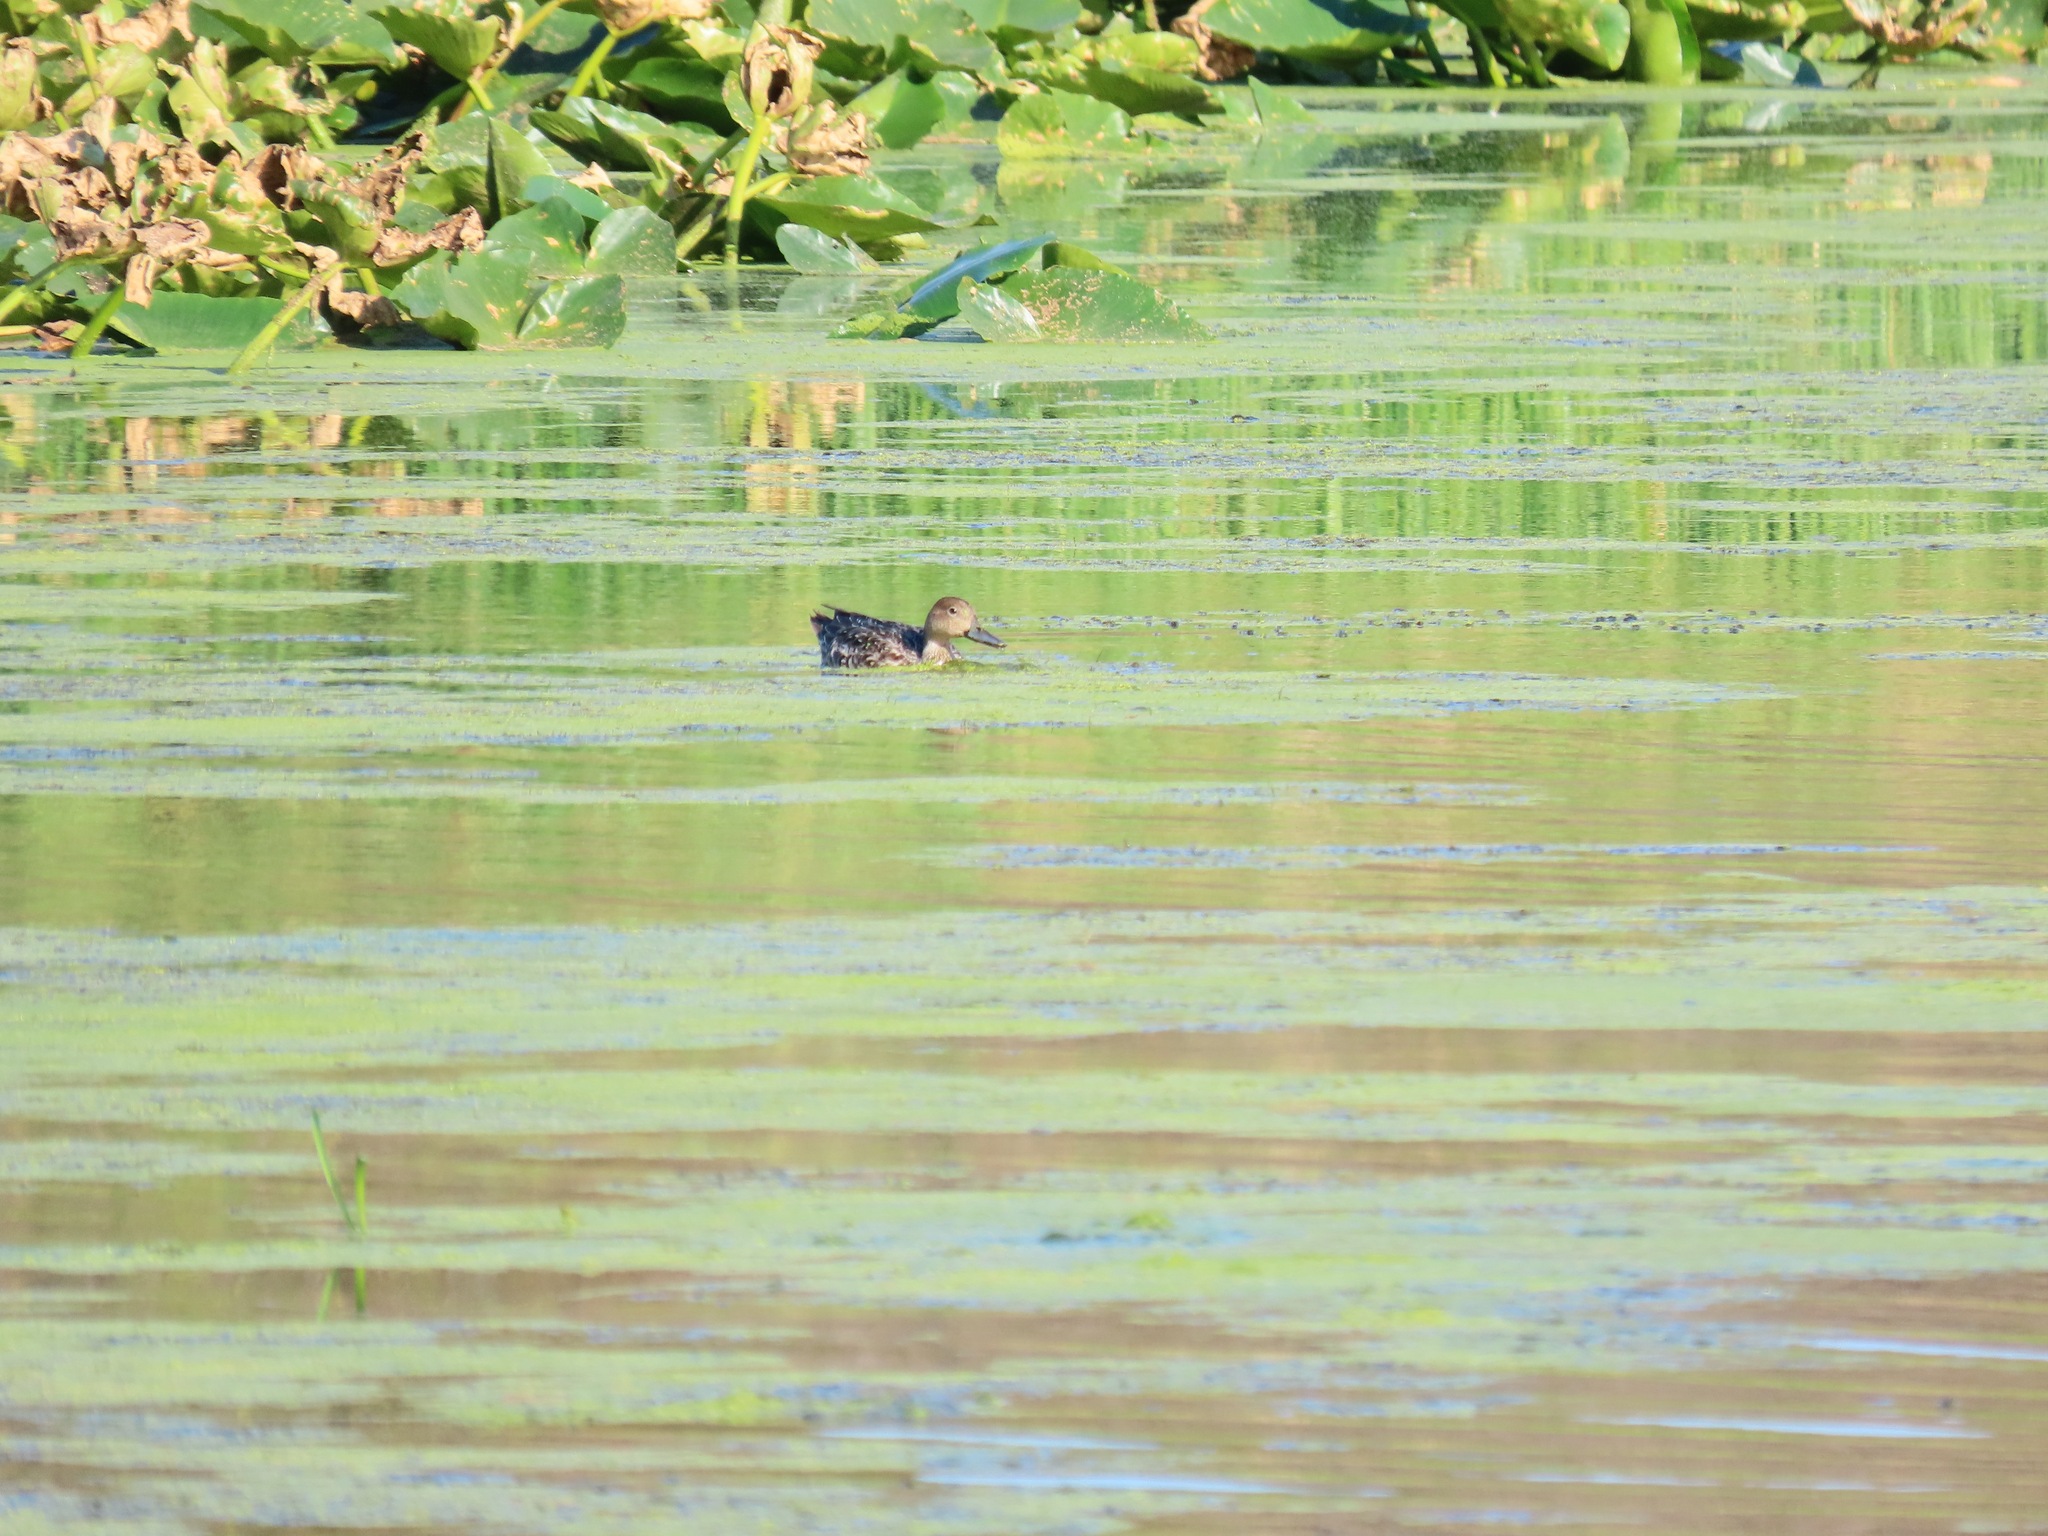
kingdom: Animalia
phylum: Chordata
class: Aves
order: Anseriformes
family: Anatidae
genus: Anas
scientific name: Anas acuta
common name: Northern pintail
